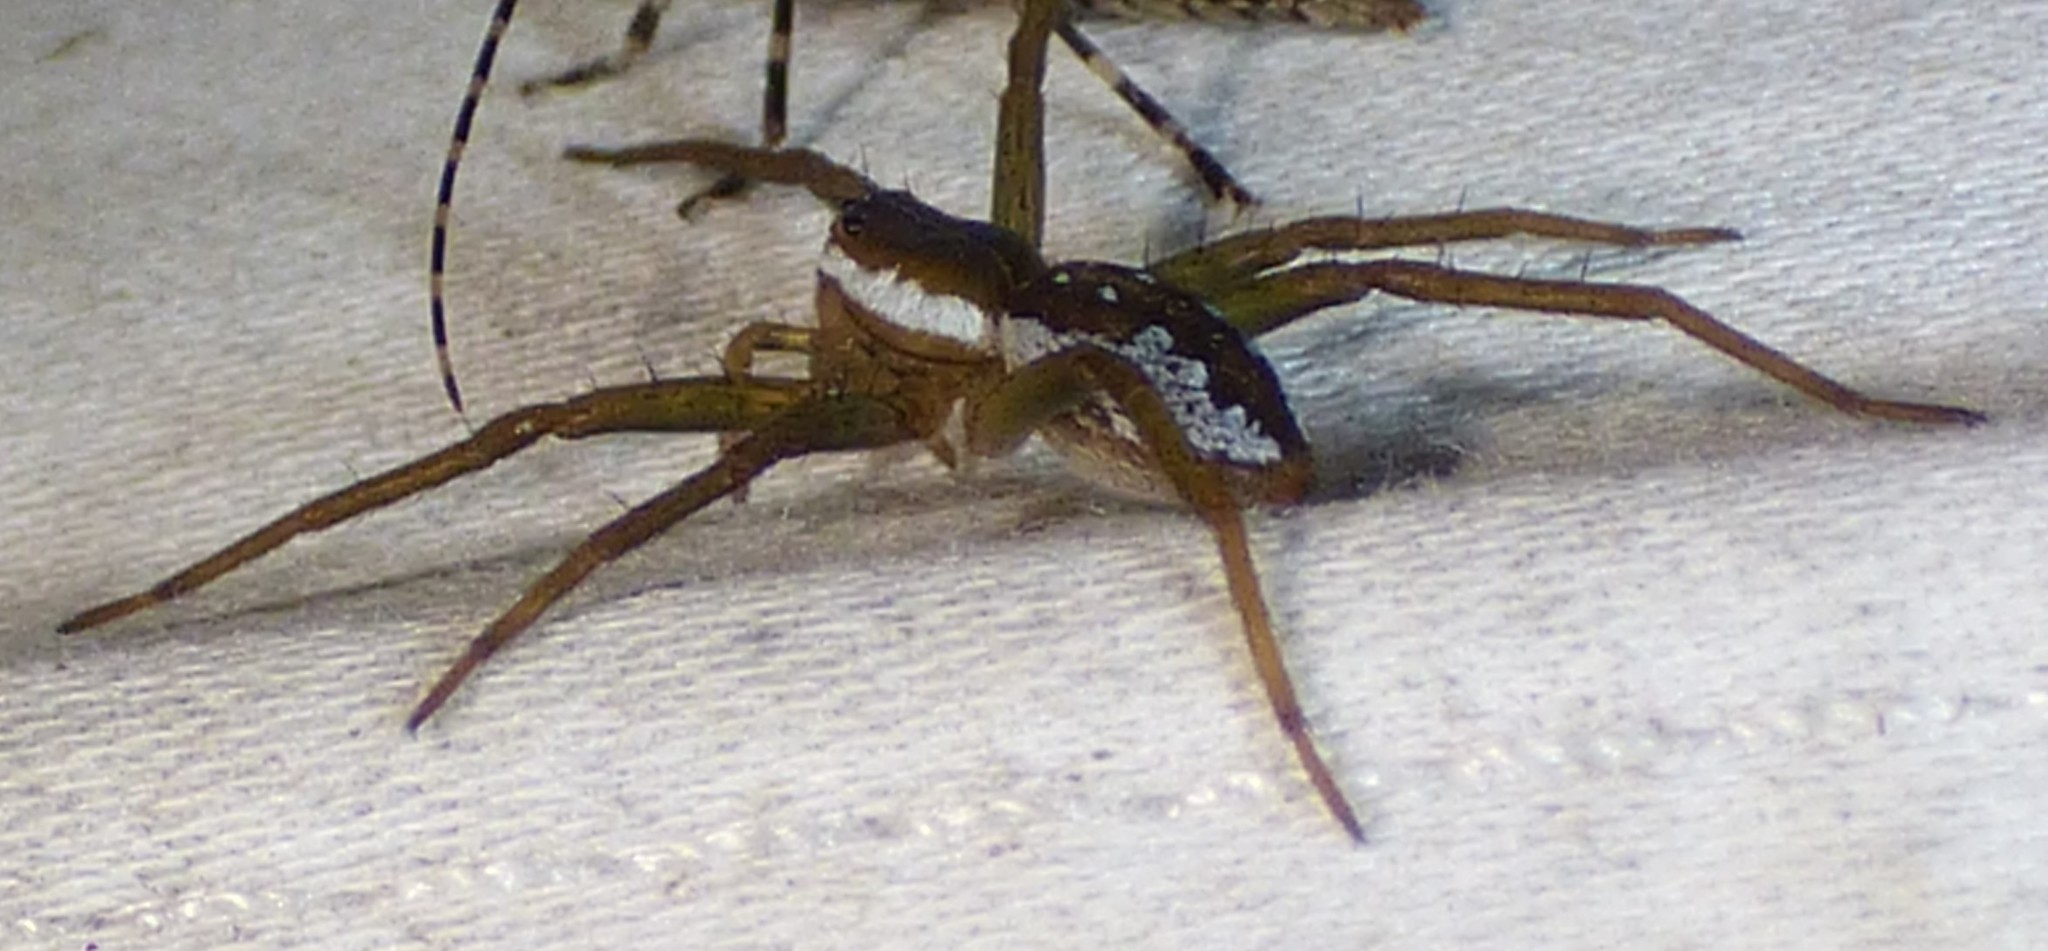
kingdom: Animalia
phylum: Arthropoda
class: Arachnida
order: Araneae
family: Pisauridae
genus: Dolomedes
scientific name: Dolomedes triton
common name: Six-spotted fishing spider
